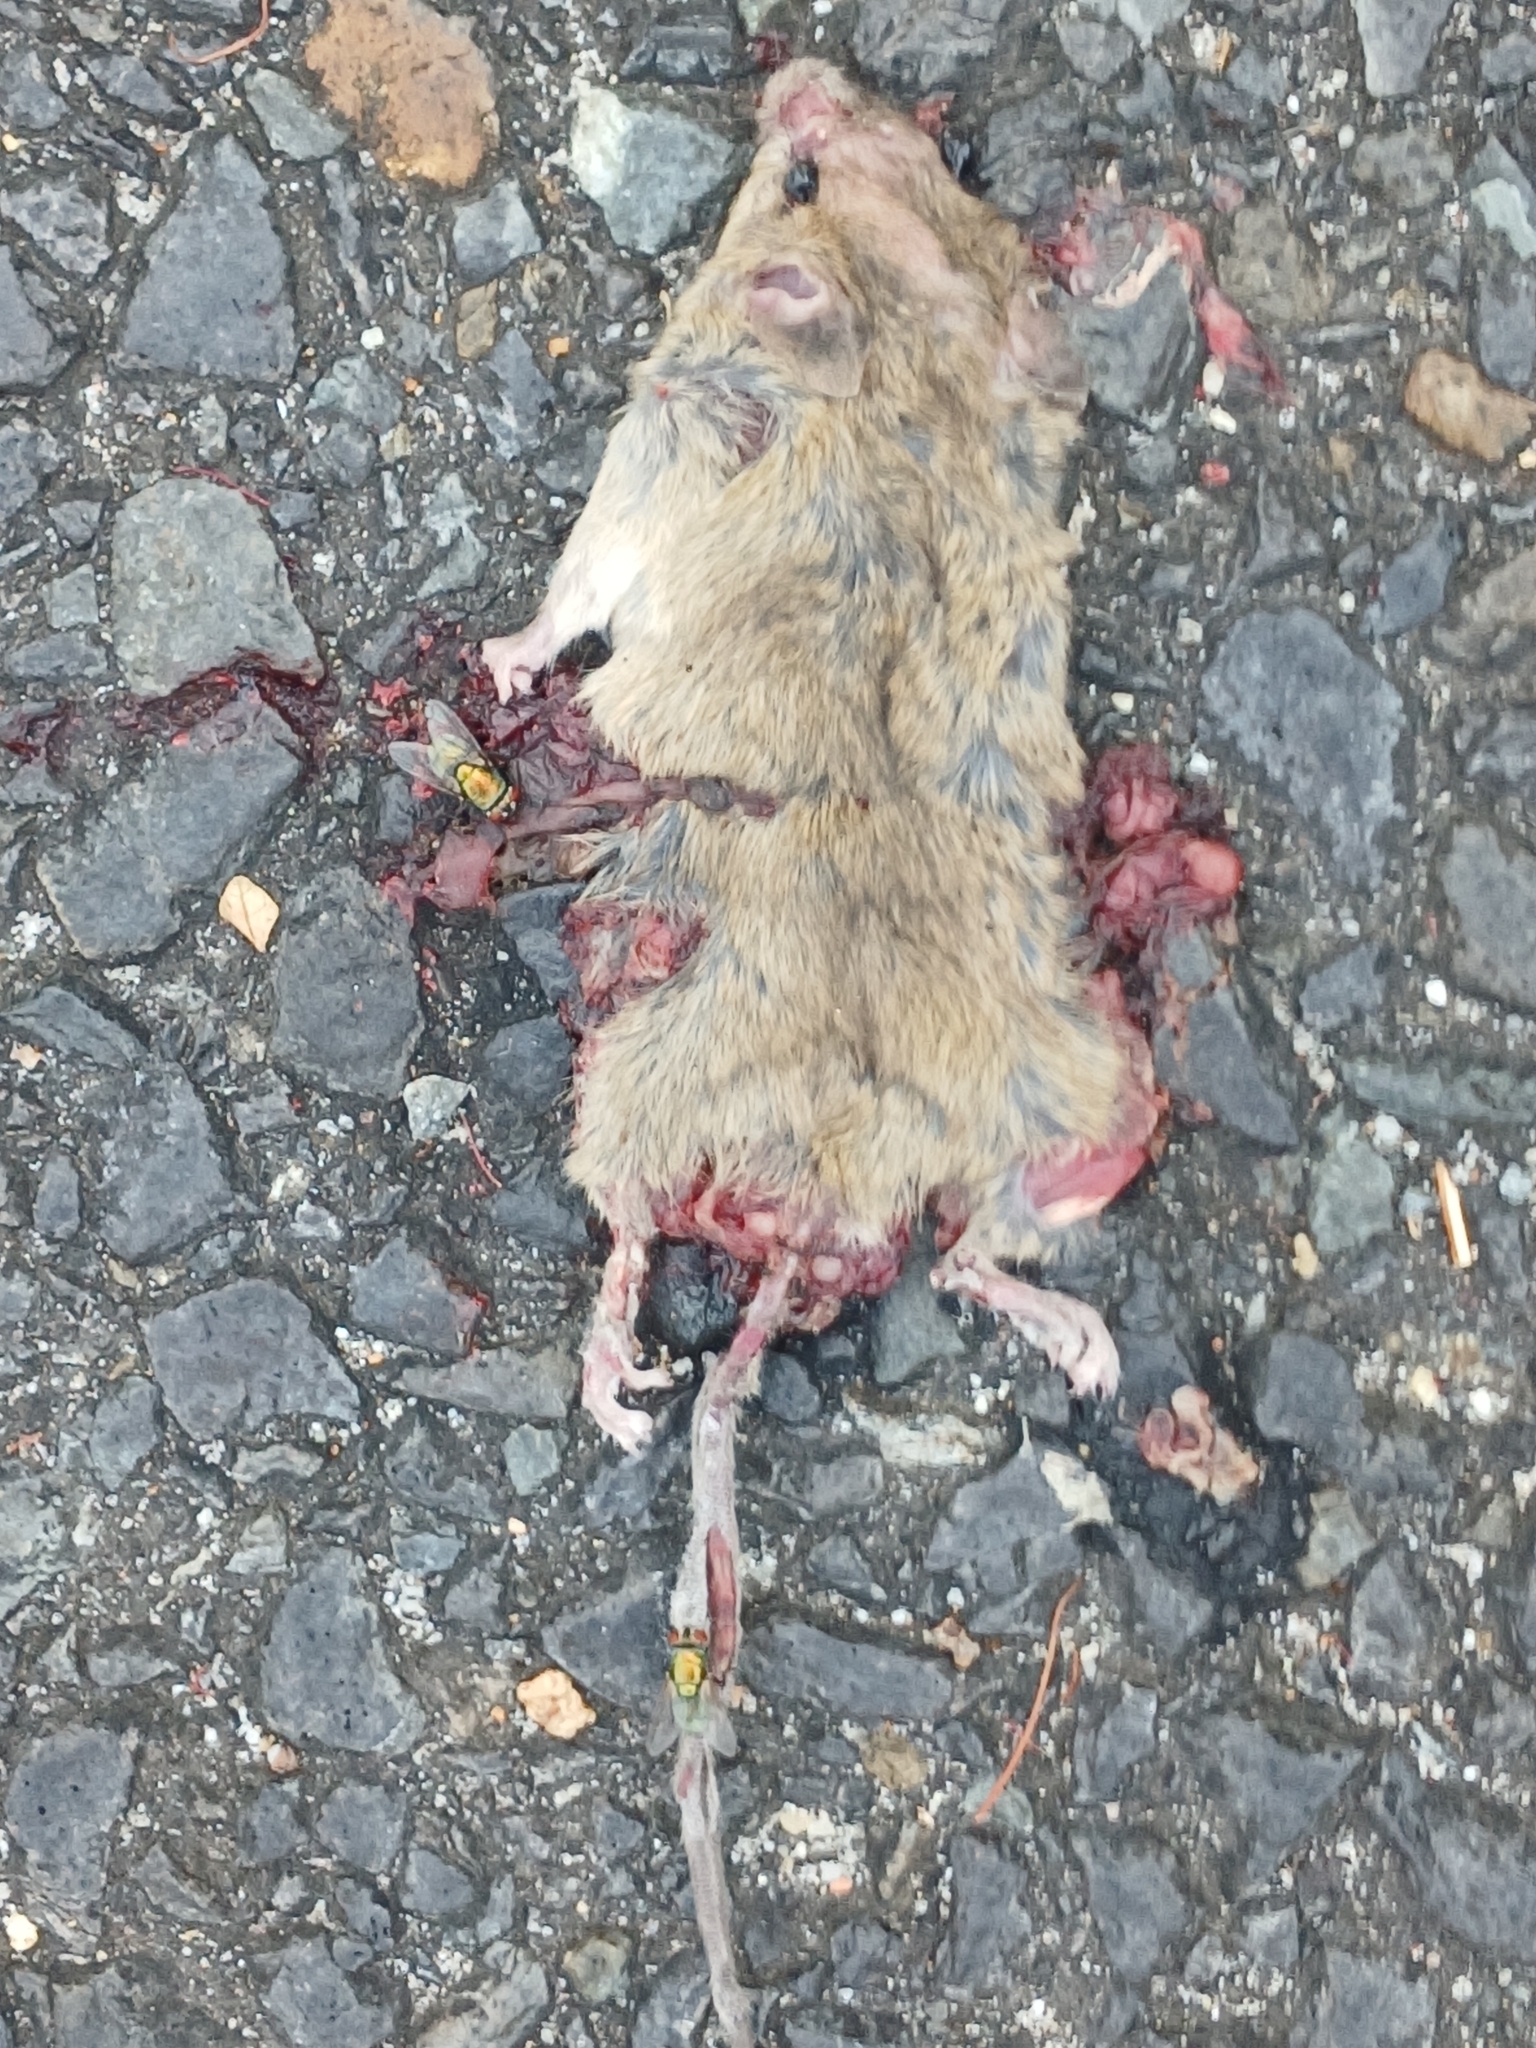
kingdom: Animalia
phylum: Chordata
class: Mammalia
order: Rodentia
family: Muridae
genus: Mus
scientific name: Mus musculus
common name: House mouse
